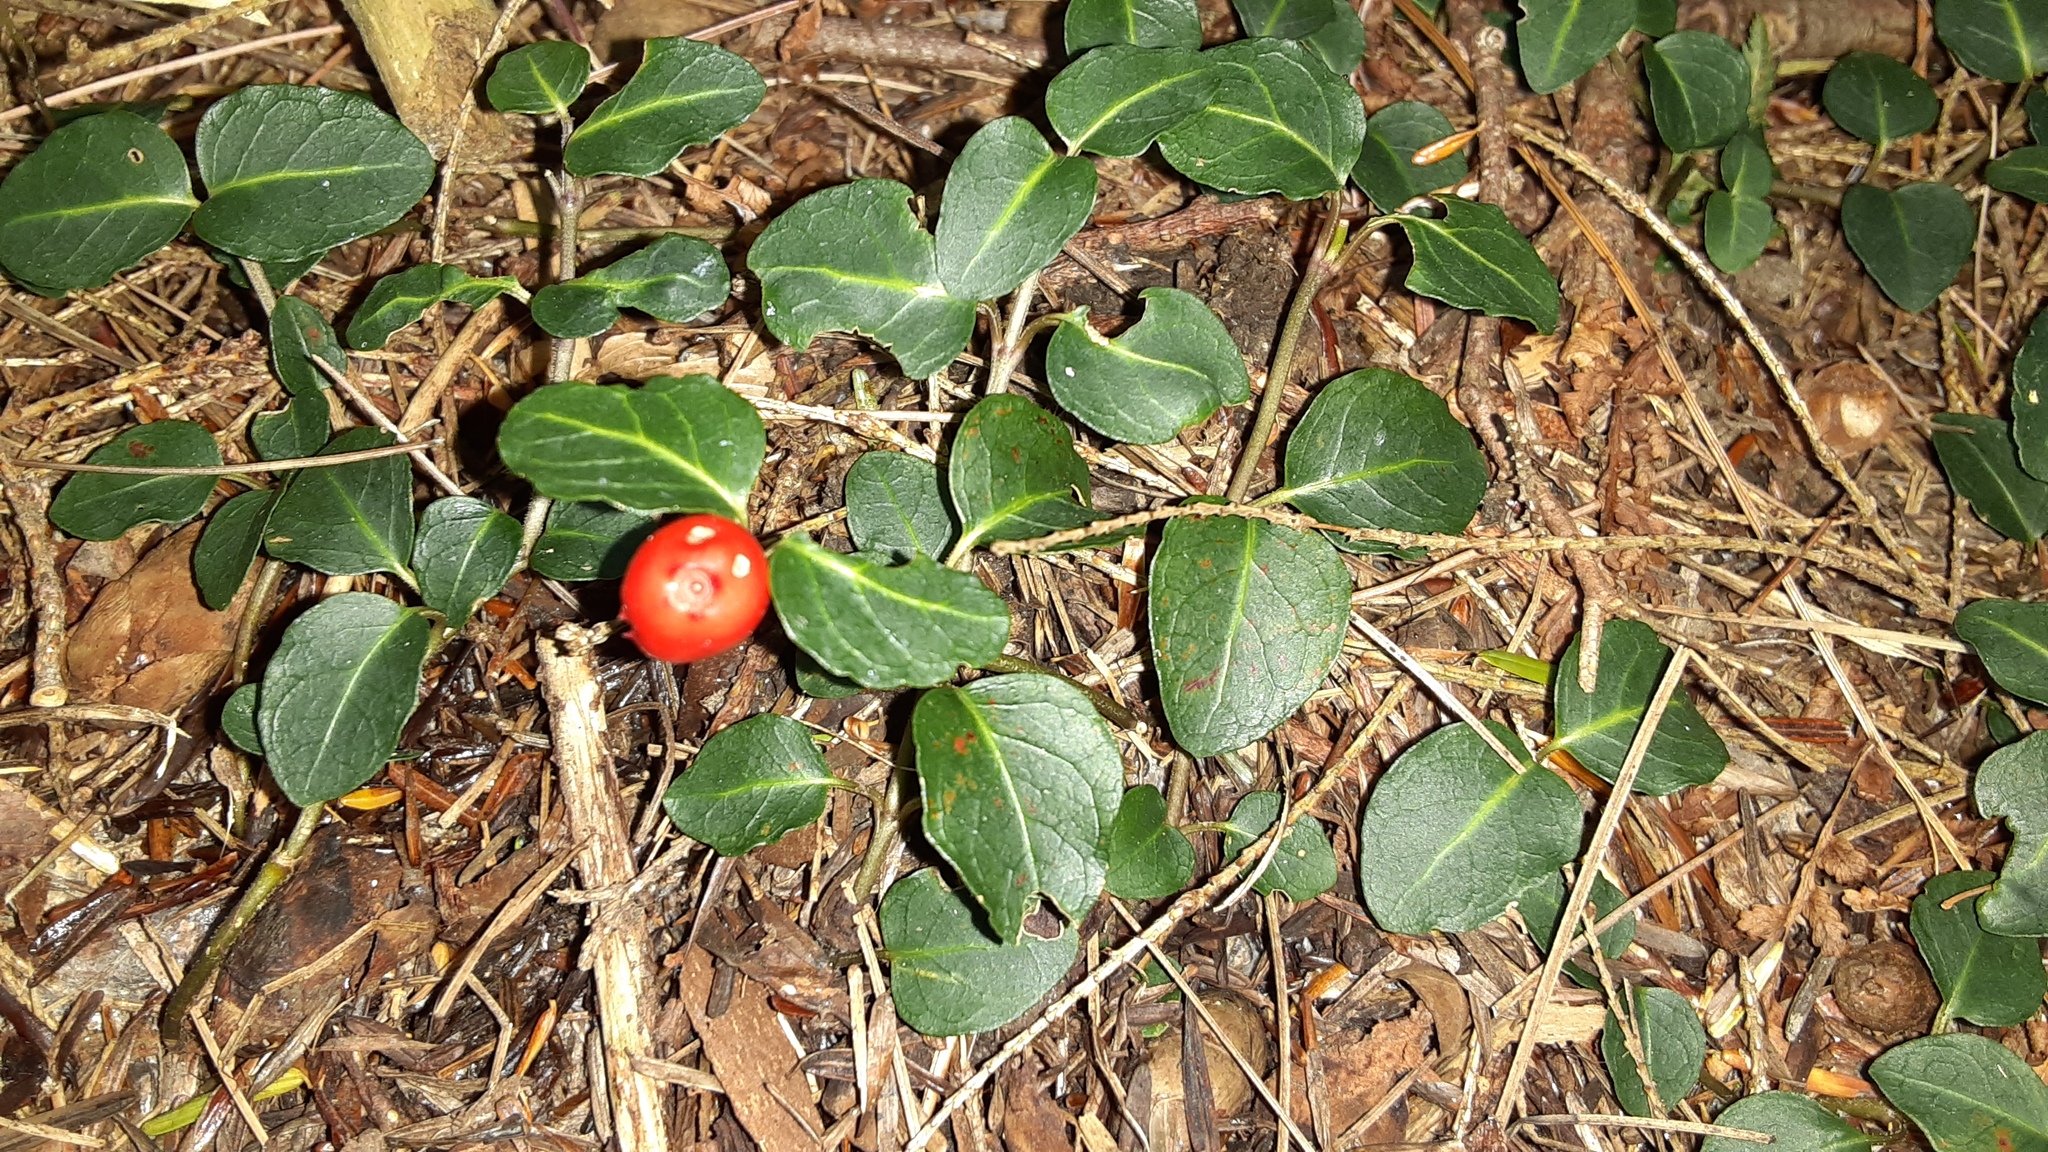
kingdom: Plantae
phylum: Tracheophyta
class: Magnoliopsida
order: Gentianales
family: Rubiaceae
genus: Mitchella
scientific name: Mitchella repens
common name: Partridge-berry
